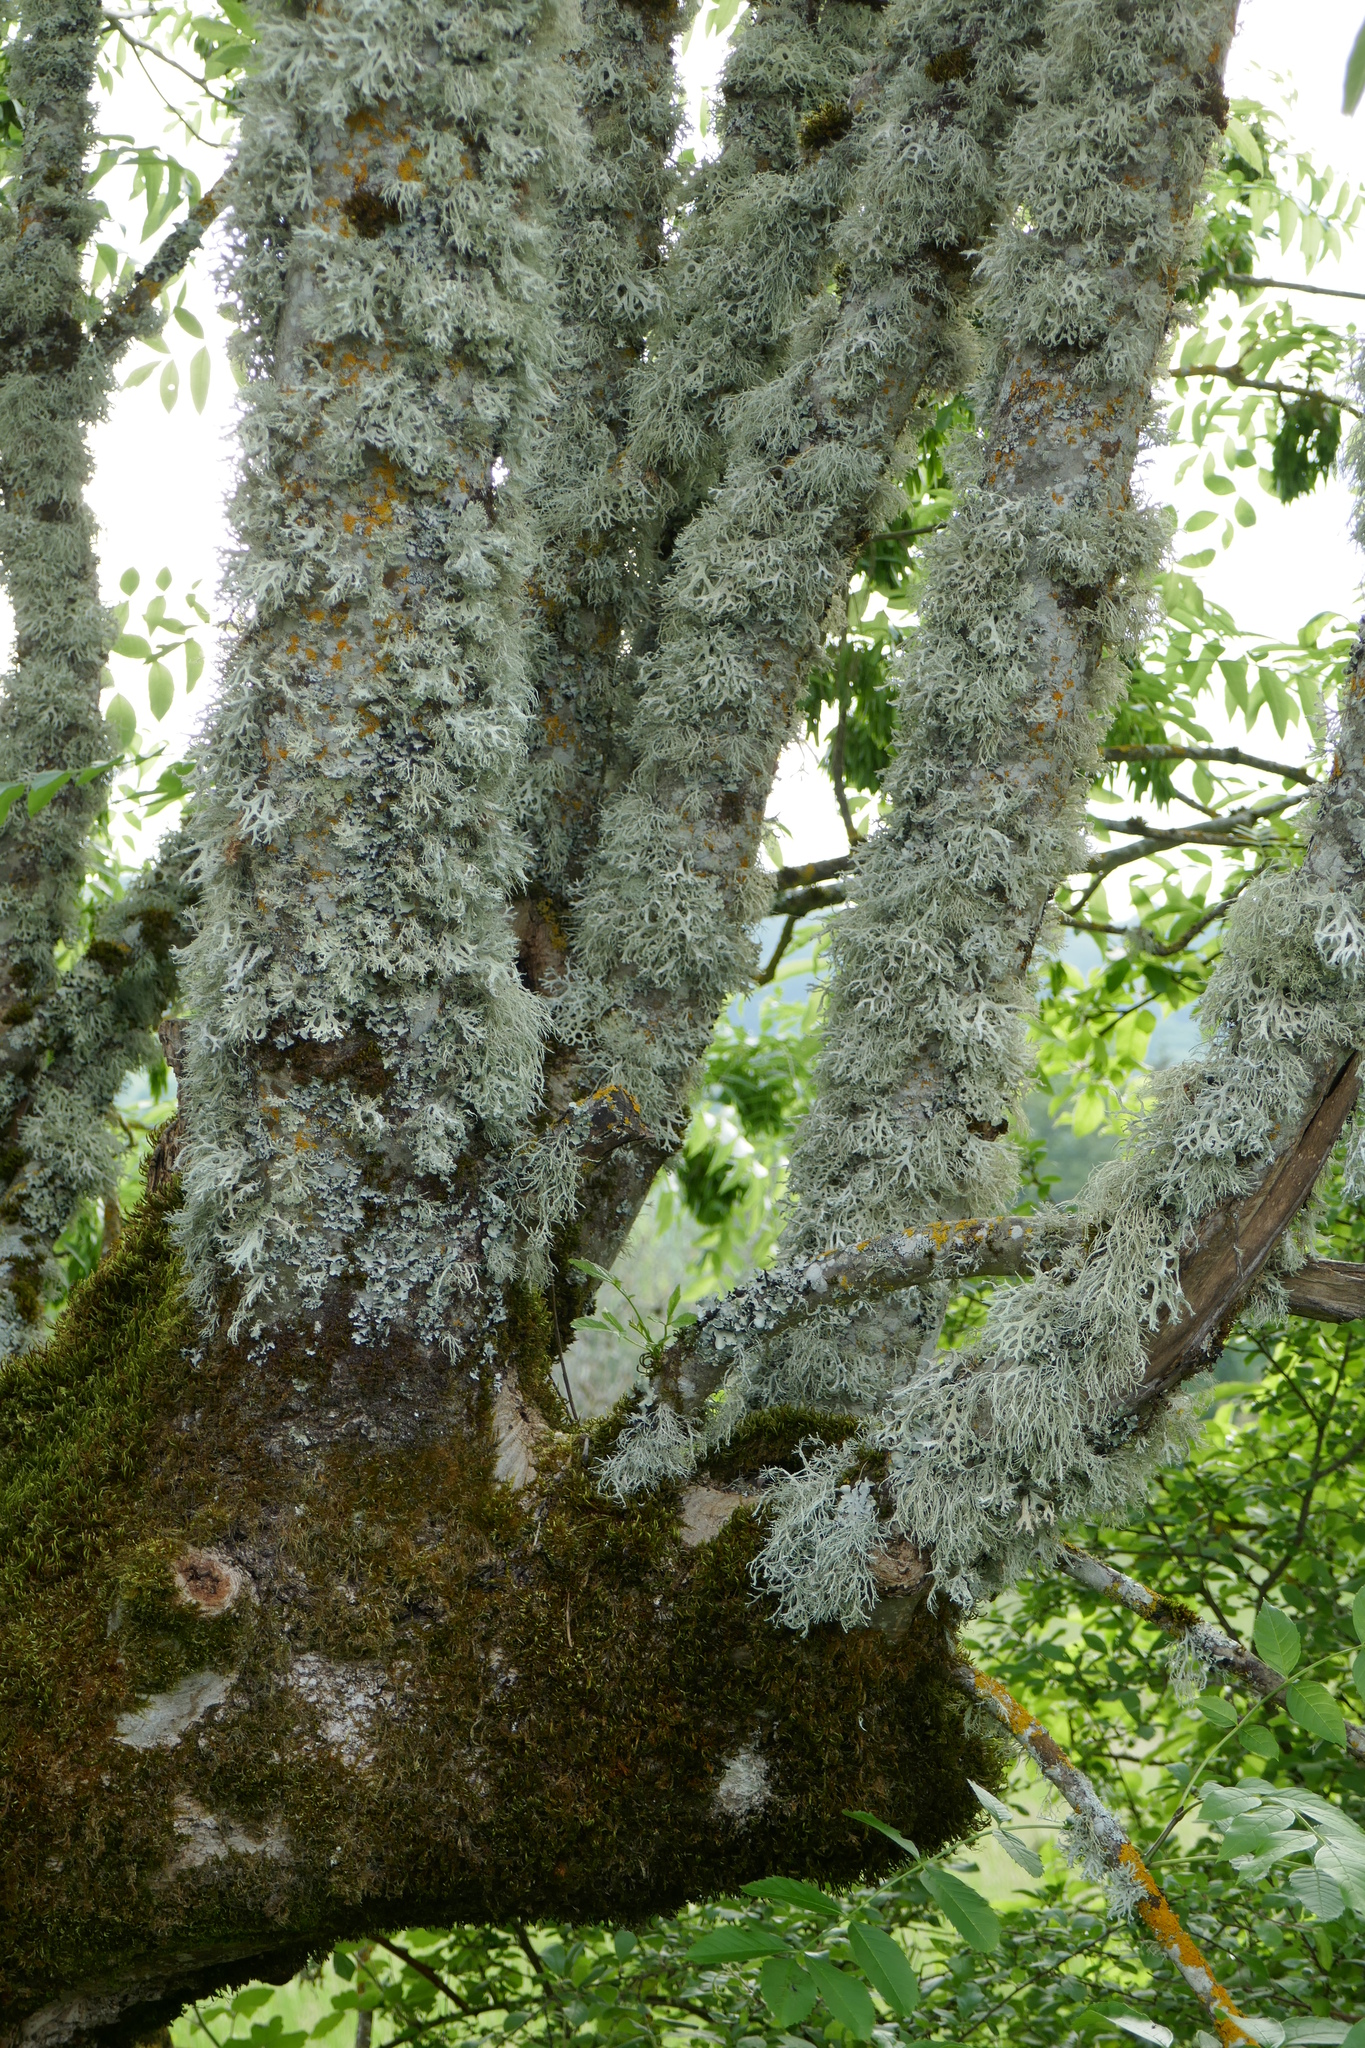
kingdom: Fungi
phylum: Ascomycota
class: Lecanoromycetes
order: Lecanorales
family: Parmeliaceae
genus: Evernia
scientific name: Evernia prunastri
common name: Oak moss
